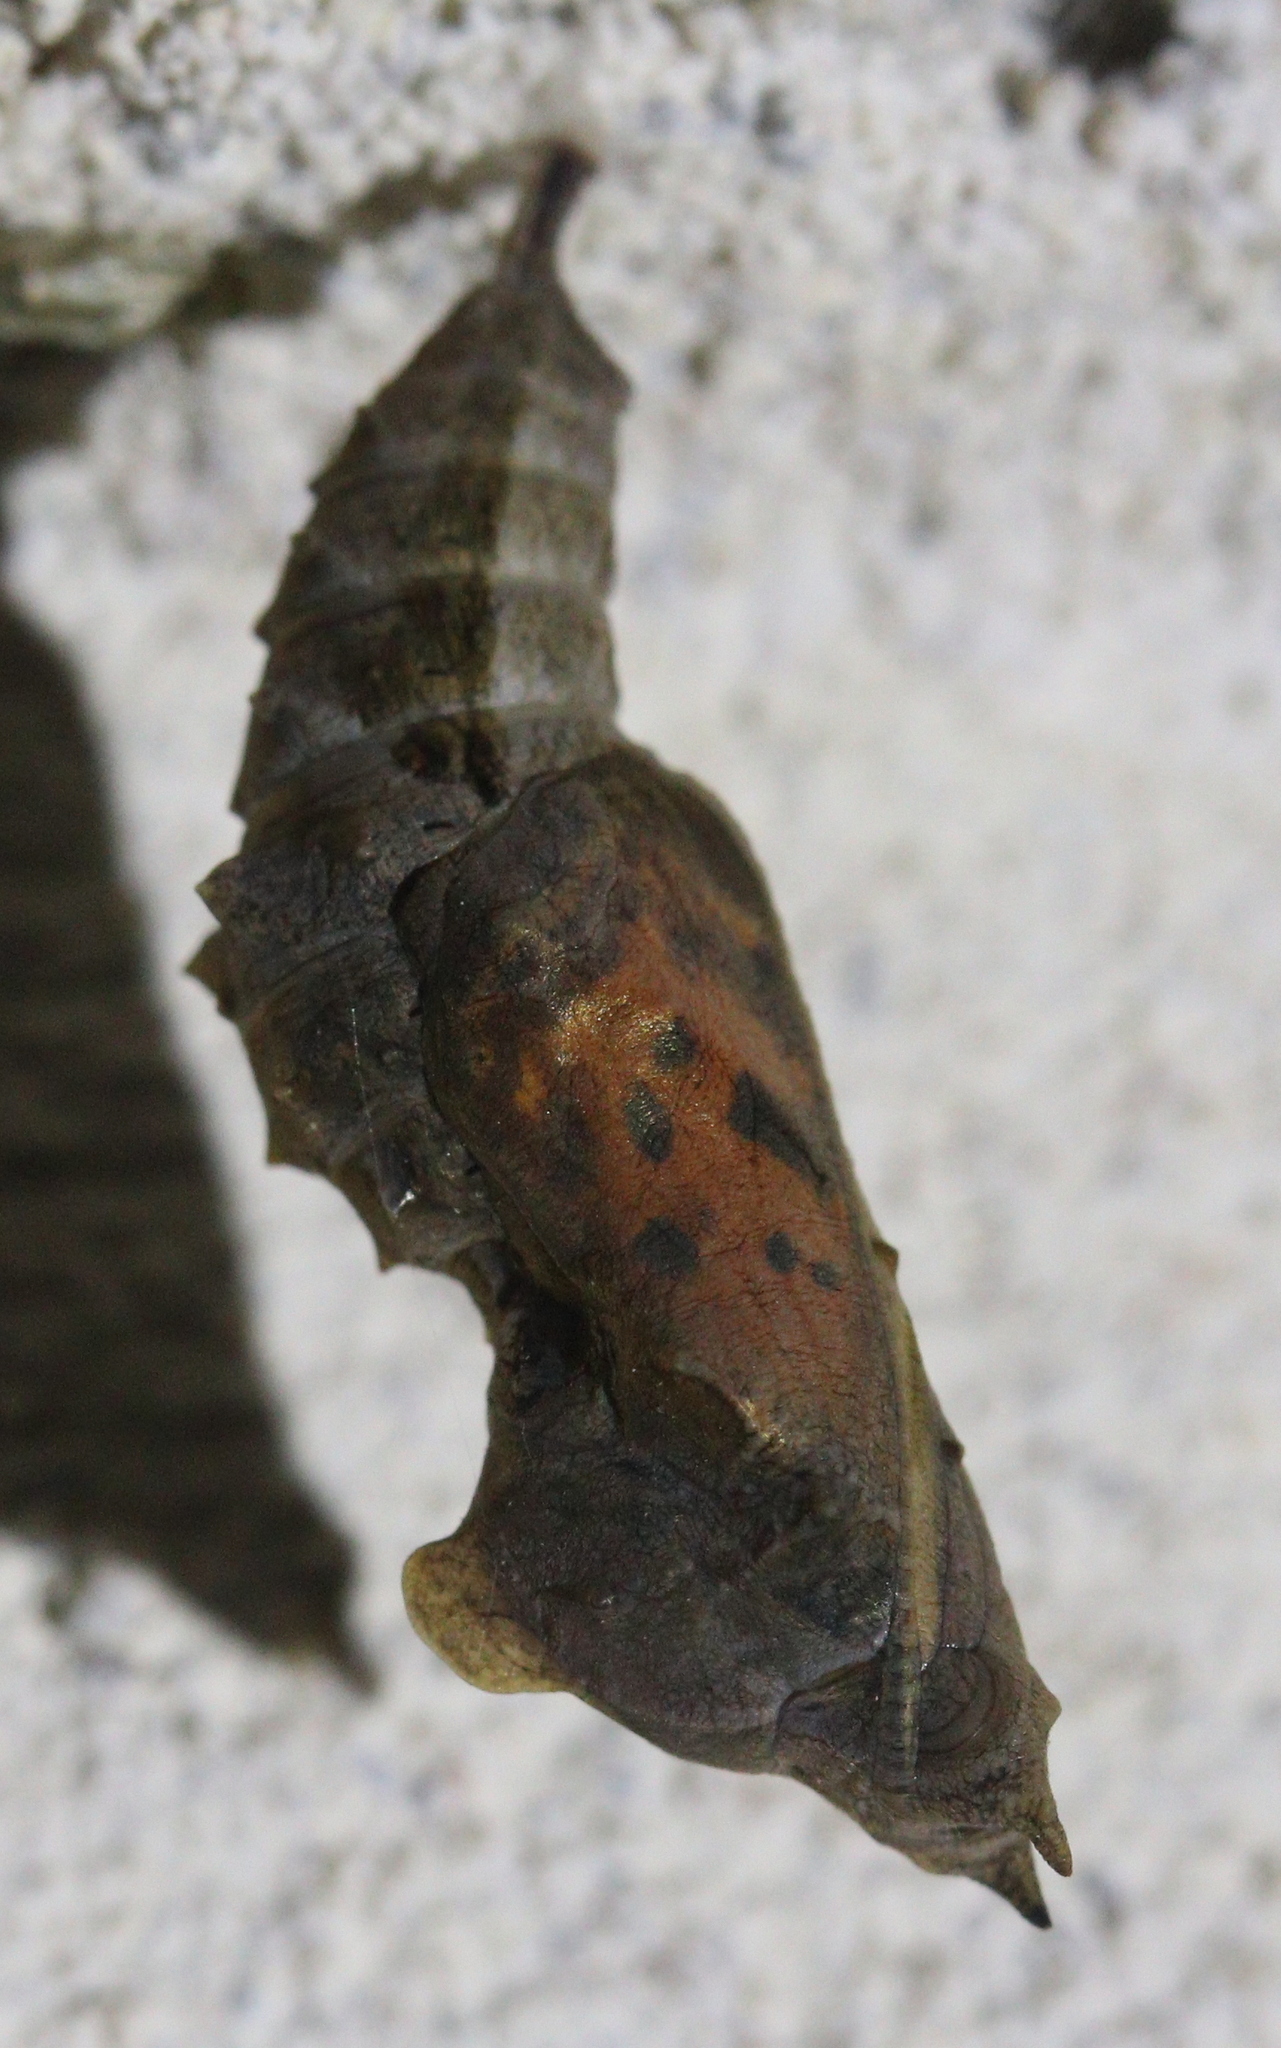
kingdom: Animalia
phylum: Arthropoda
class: Insecta
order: Lepidoptera
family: Nymphalidae
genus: Polygonia
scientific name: Polygonia c-album
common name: Comma
